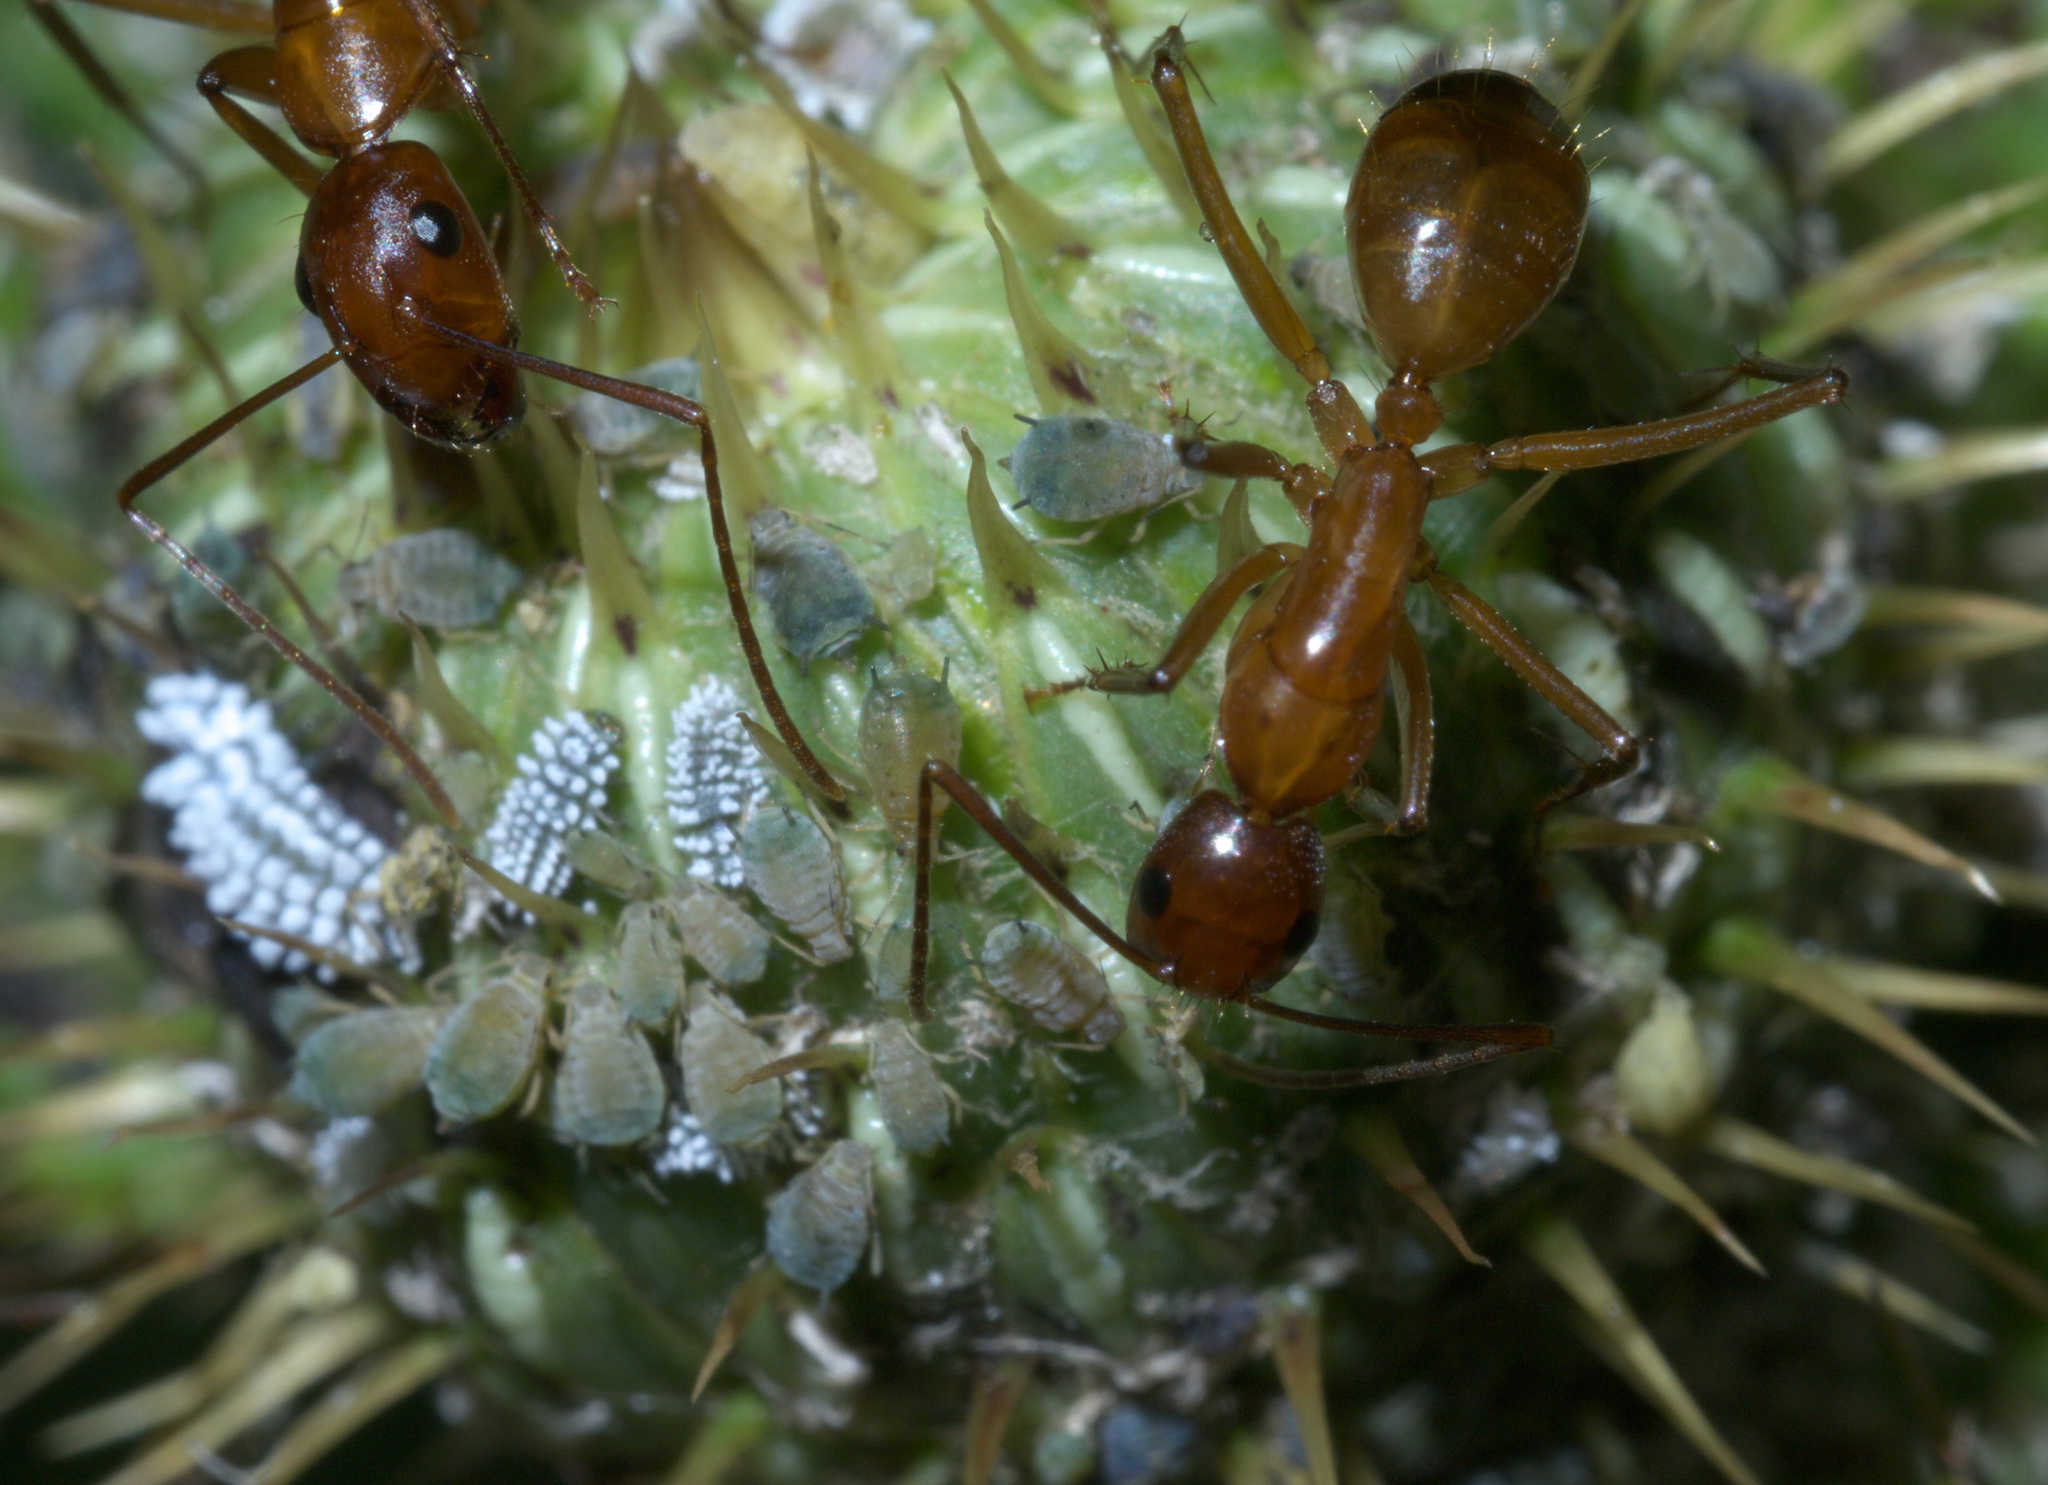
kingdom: Animalia
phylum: Arthropoda
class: Insecta
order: Hymenoptera
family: Formicidae
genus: Camponotus
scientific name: Camponotus castaneus
